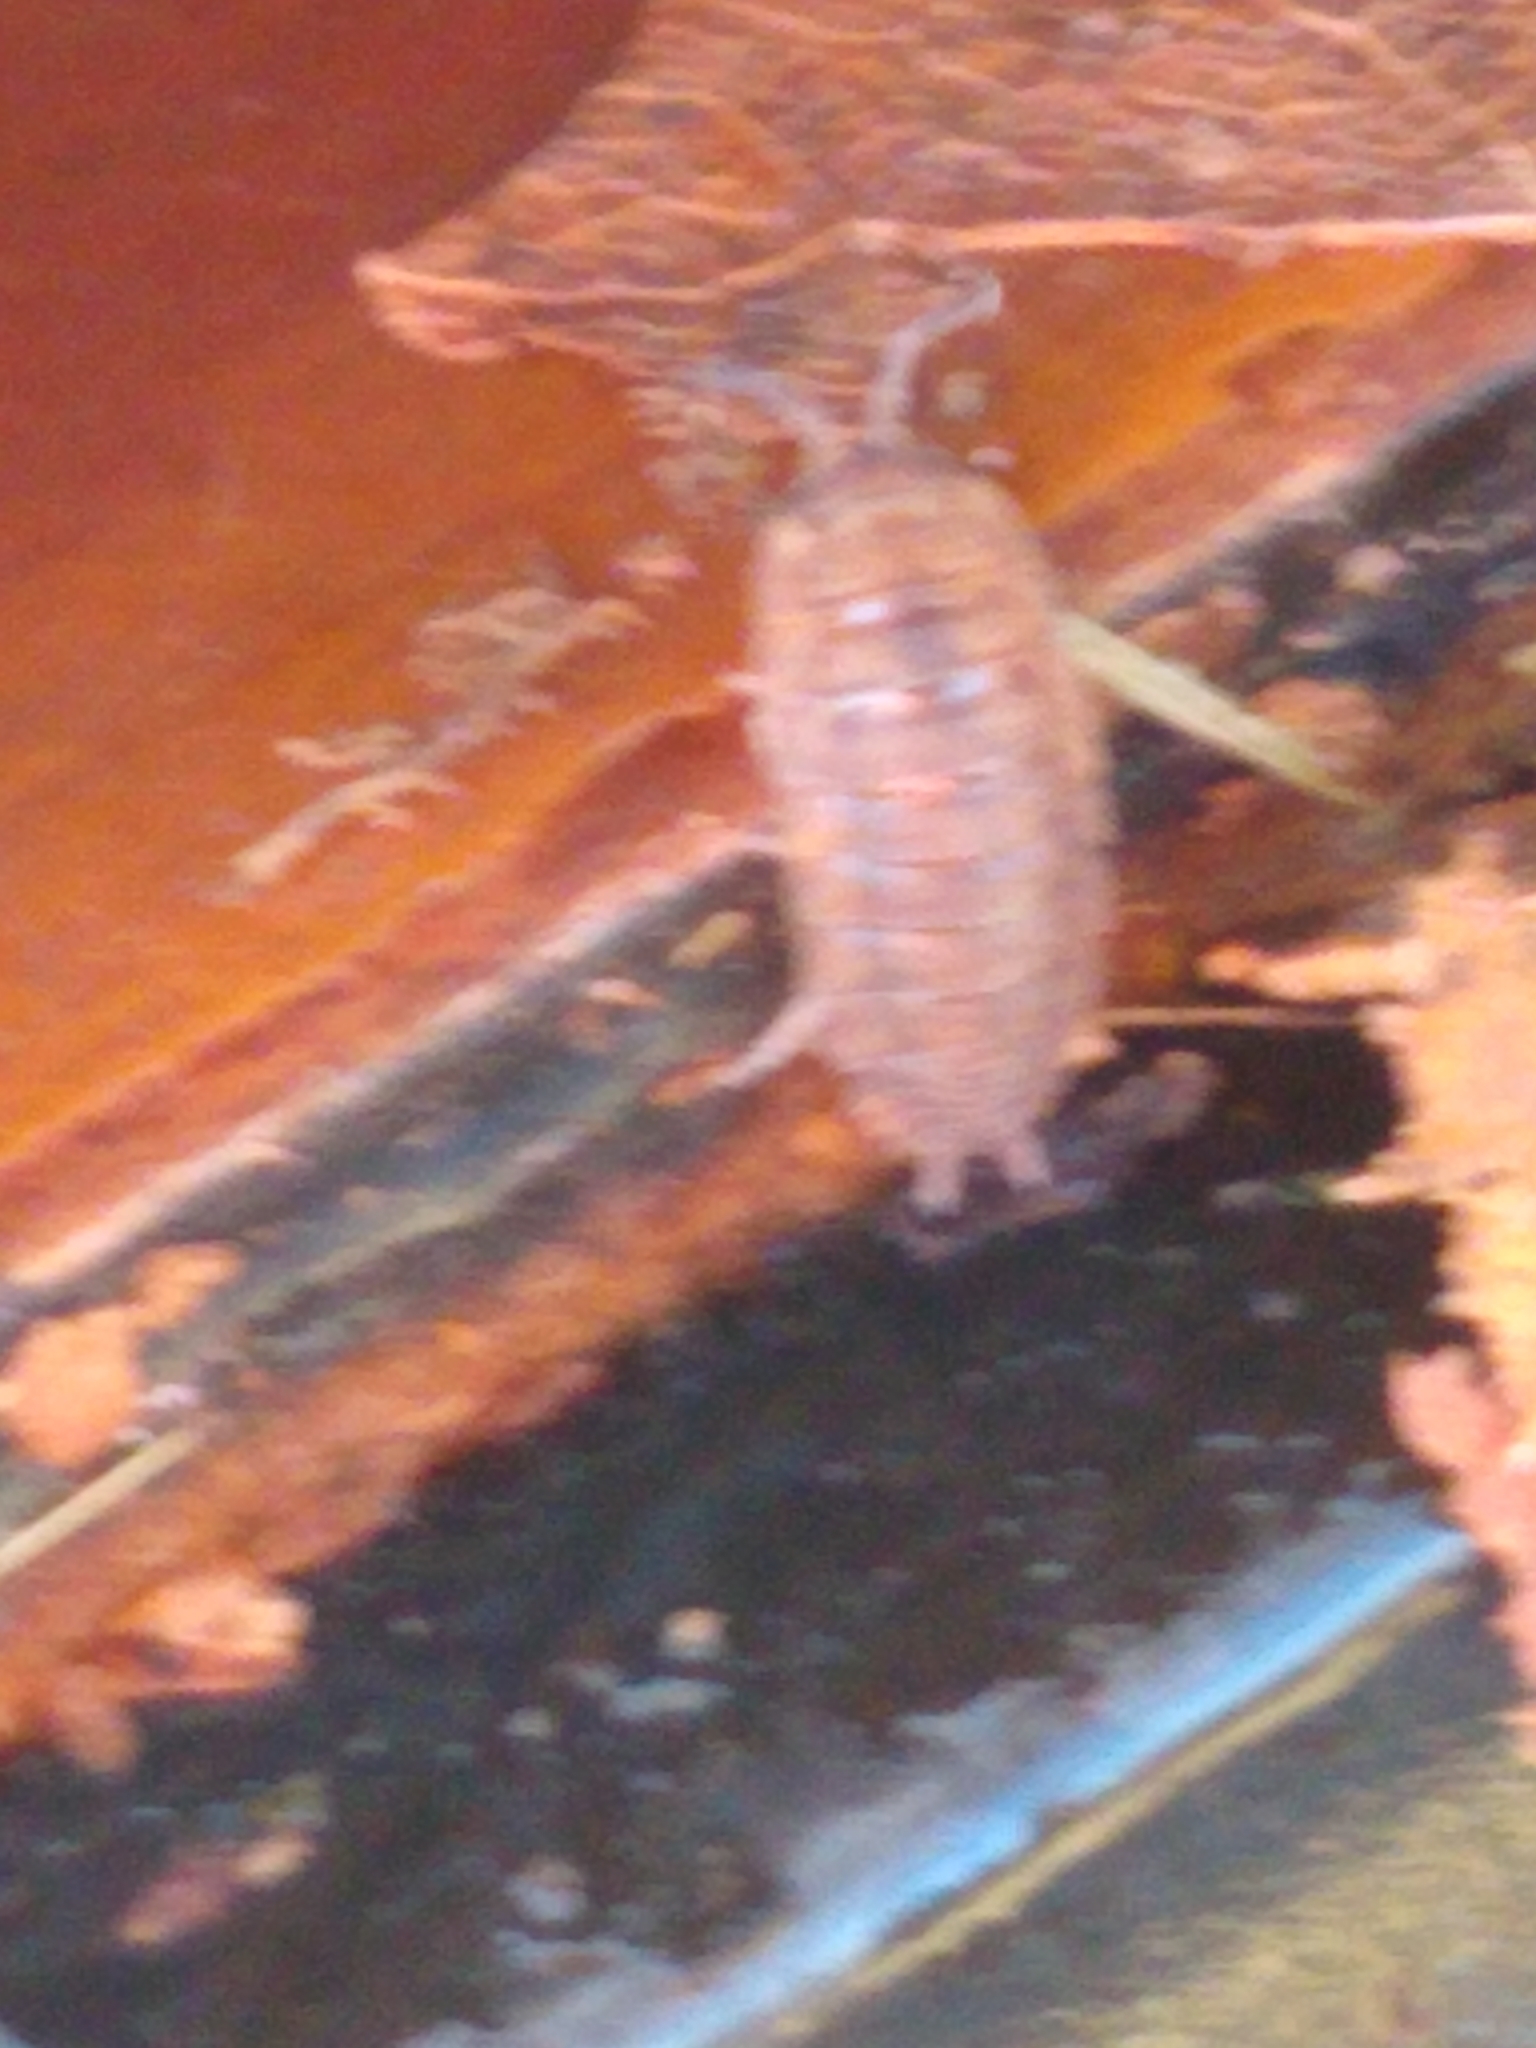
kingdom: Animalia
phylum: Arthropoda
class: Malacostraca
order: Isopoda
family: Porcellionidae
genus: Porcellio
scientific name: Porcellio scaber
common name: Common rough woodlouse
